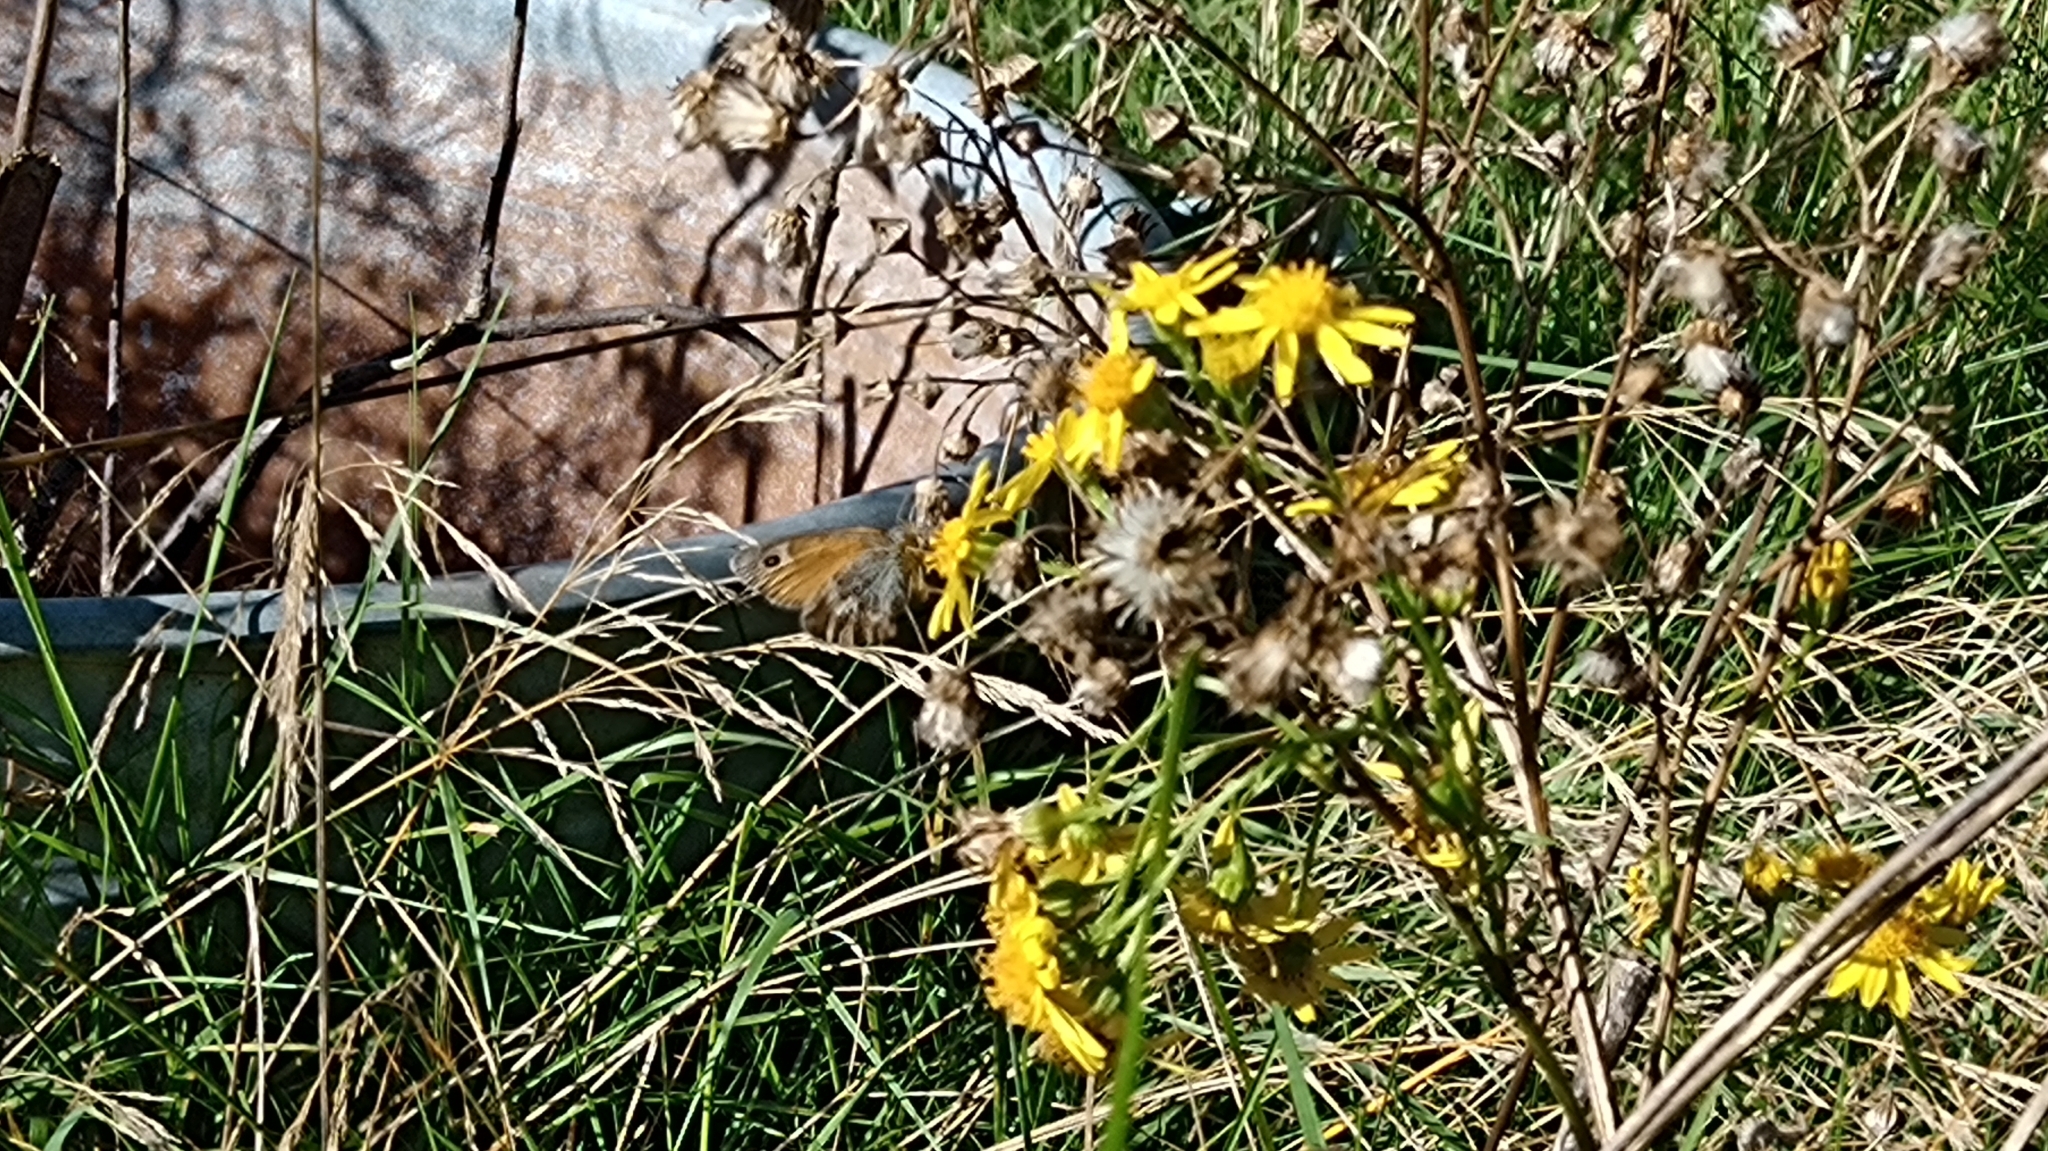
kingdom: Animalia
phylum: Arthropoda
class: Insecta
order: Lepidoptera
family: Nymphalidae
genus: Coenonympha
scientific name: Coenonympha pamphilus
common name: Small heath
